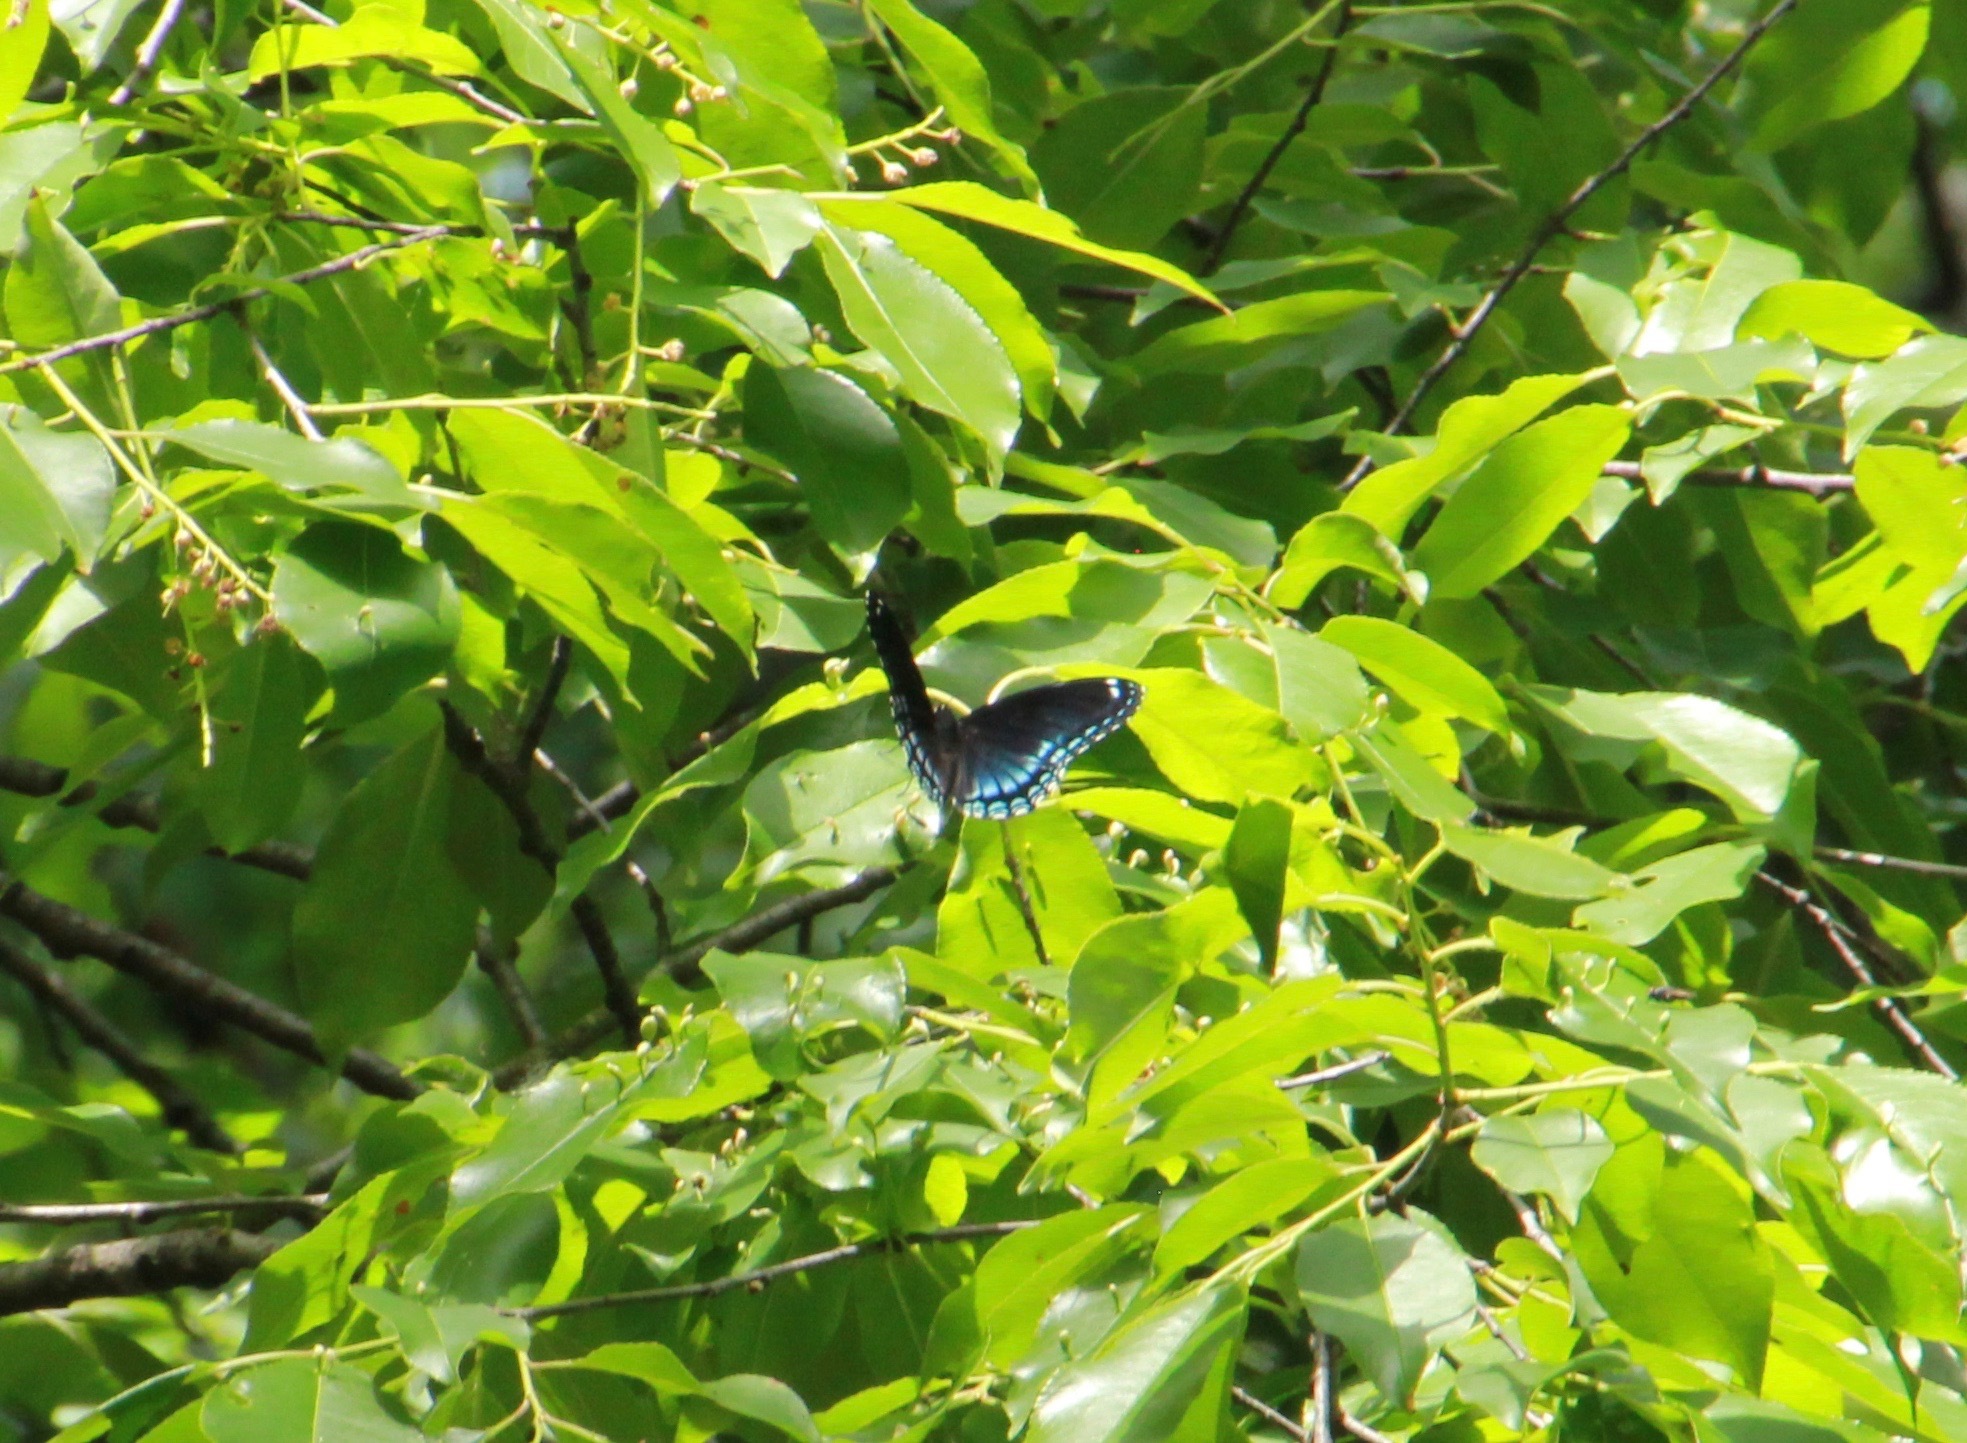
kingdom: Animalia
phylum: Arthropoda
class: Insecta
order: Lepidoptera
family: Nymphalidae
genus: Limenitis
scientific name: Limenitis astyanax
